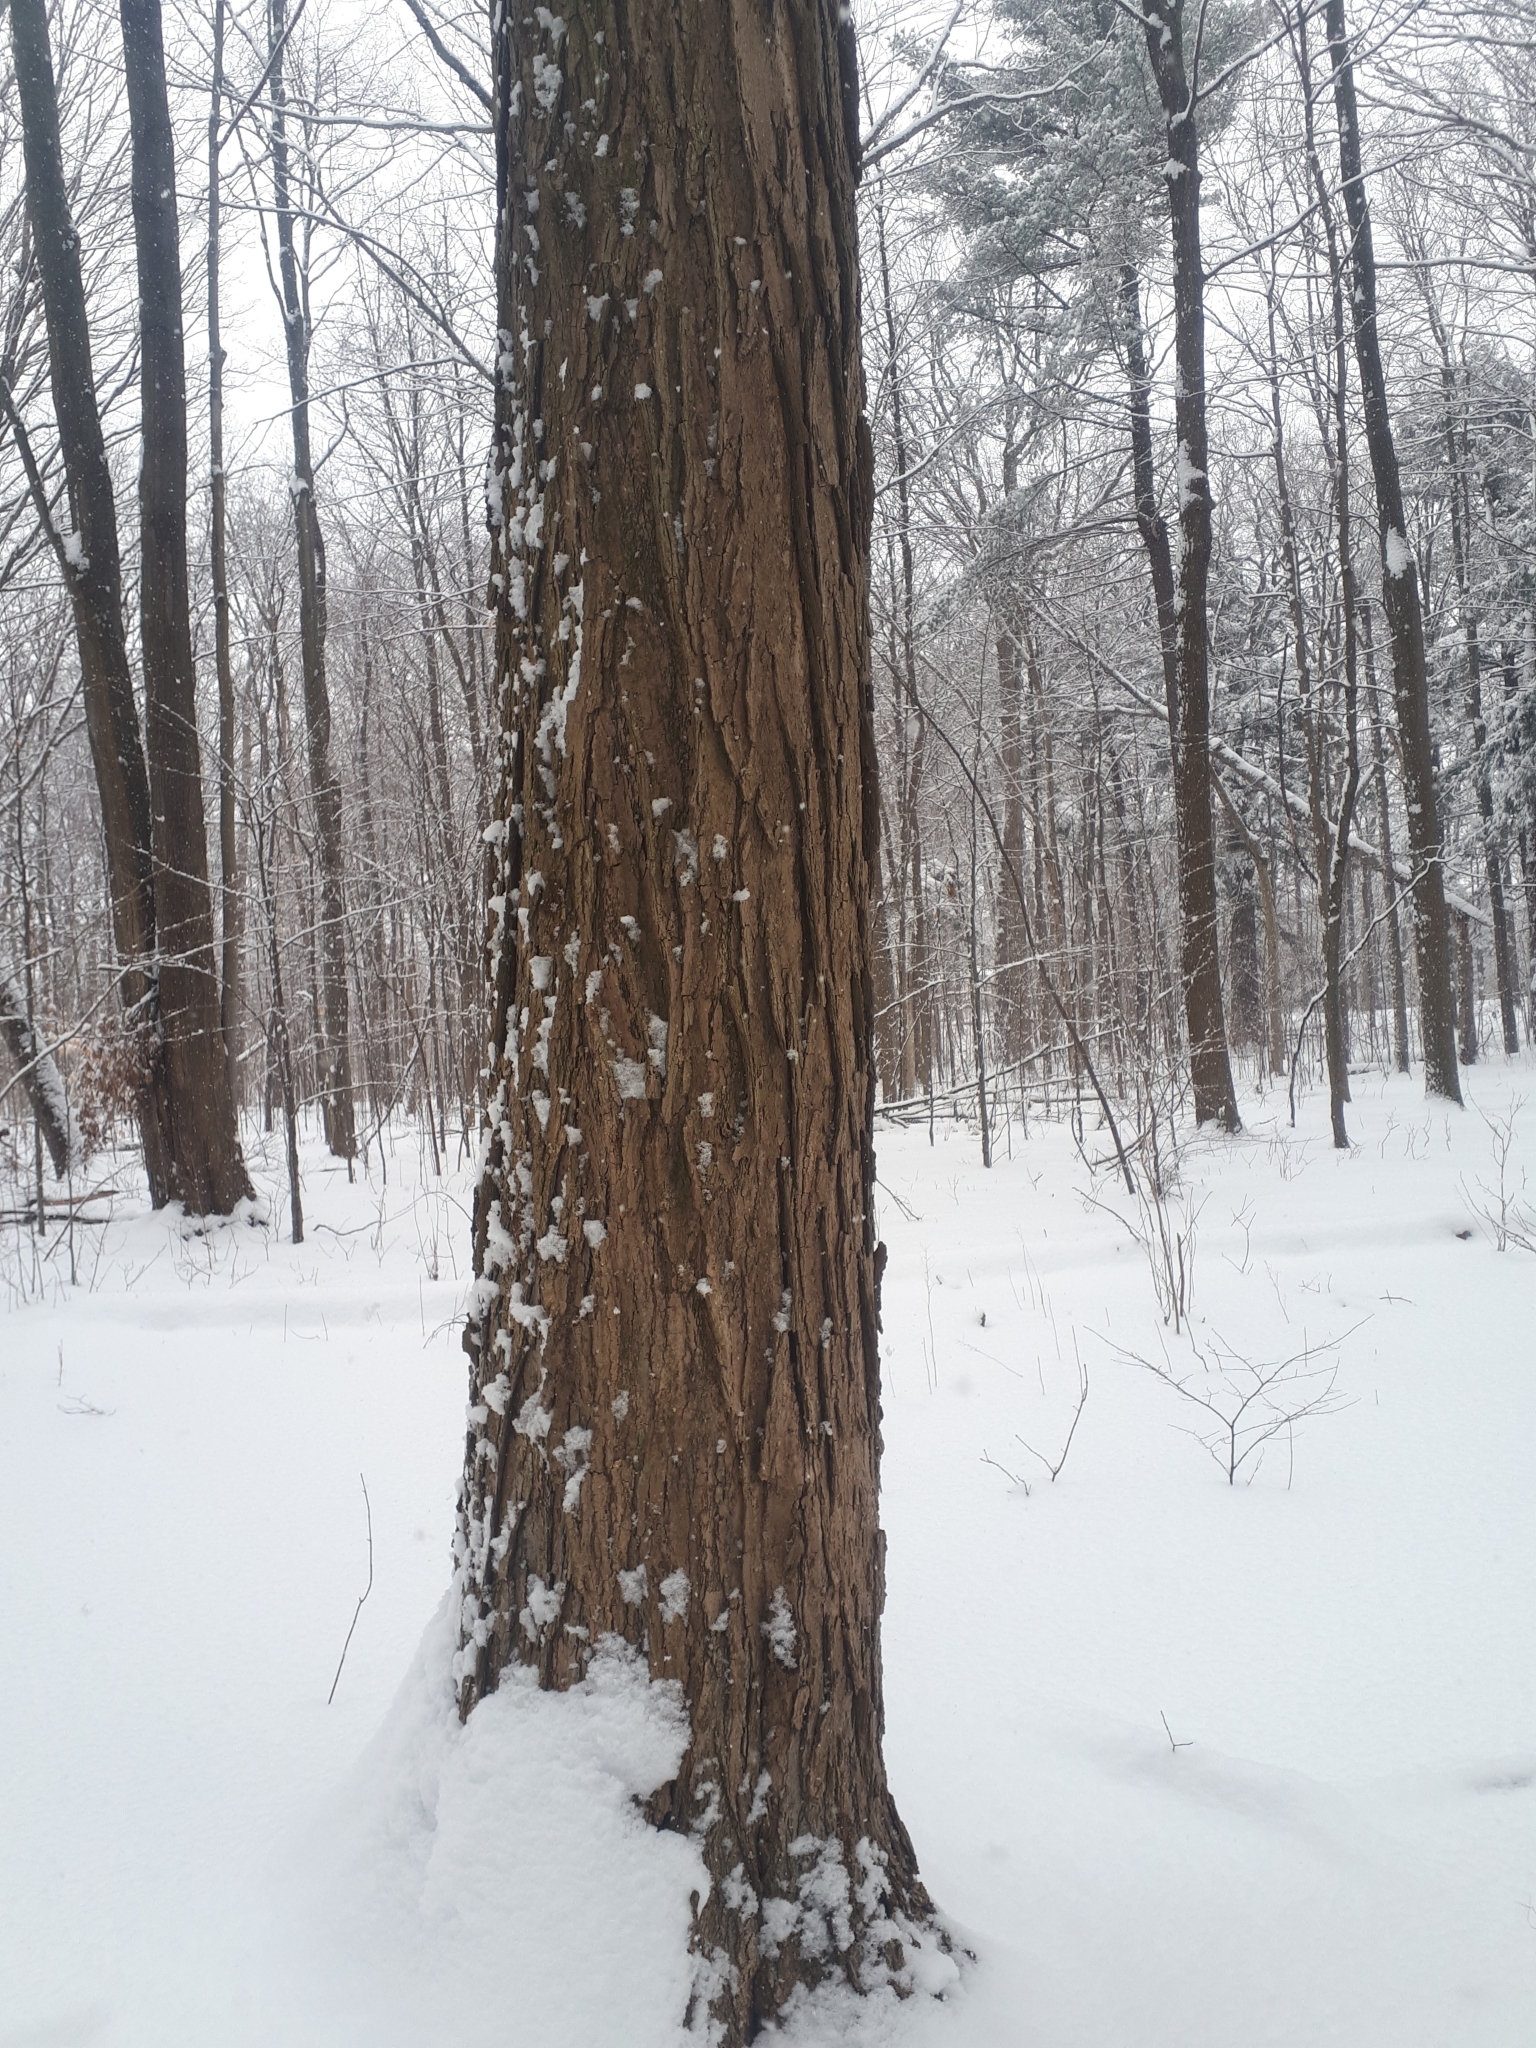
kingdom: Plantae
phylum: Tracheophyta
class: Magnoliopsida
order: Sapindales
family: Sapindaceae
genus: Acer
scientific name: Acer saccharum
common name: Sugar maple
